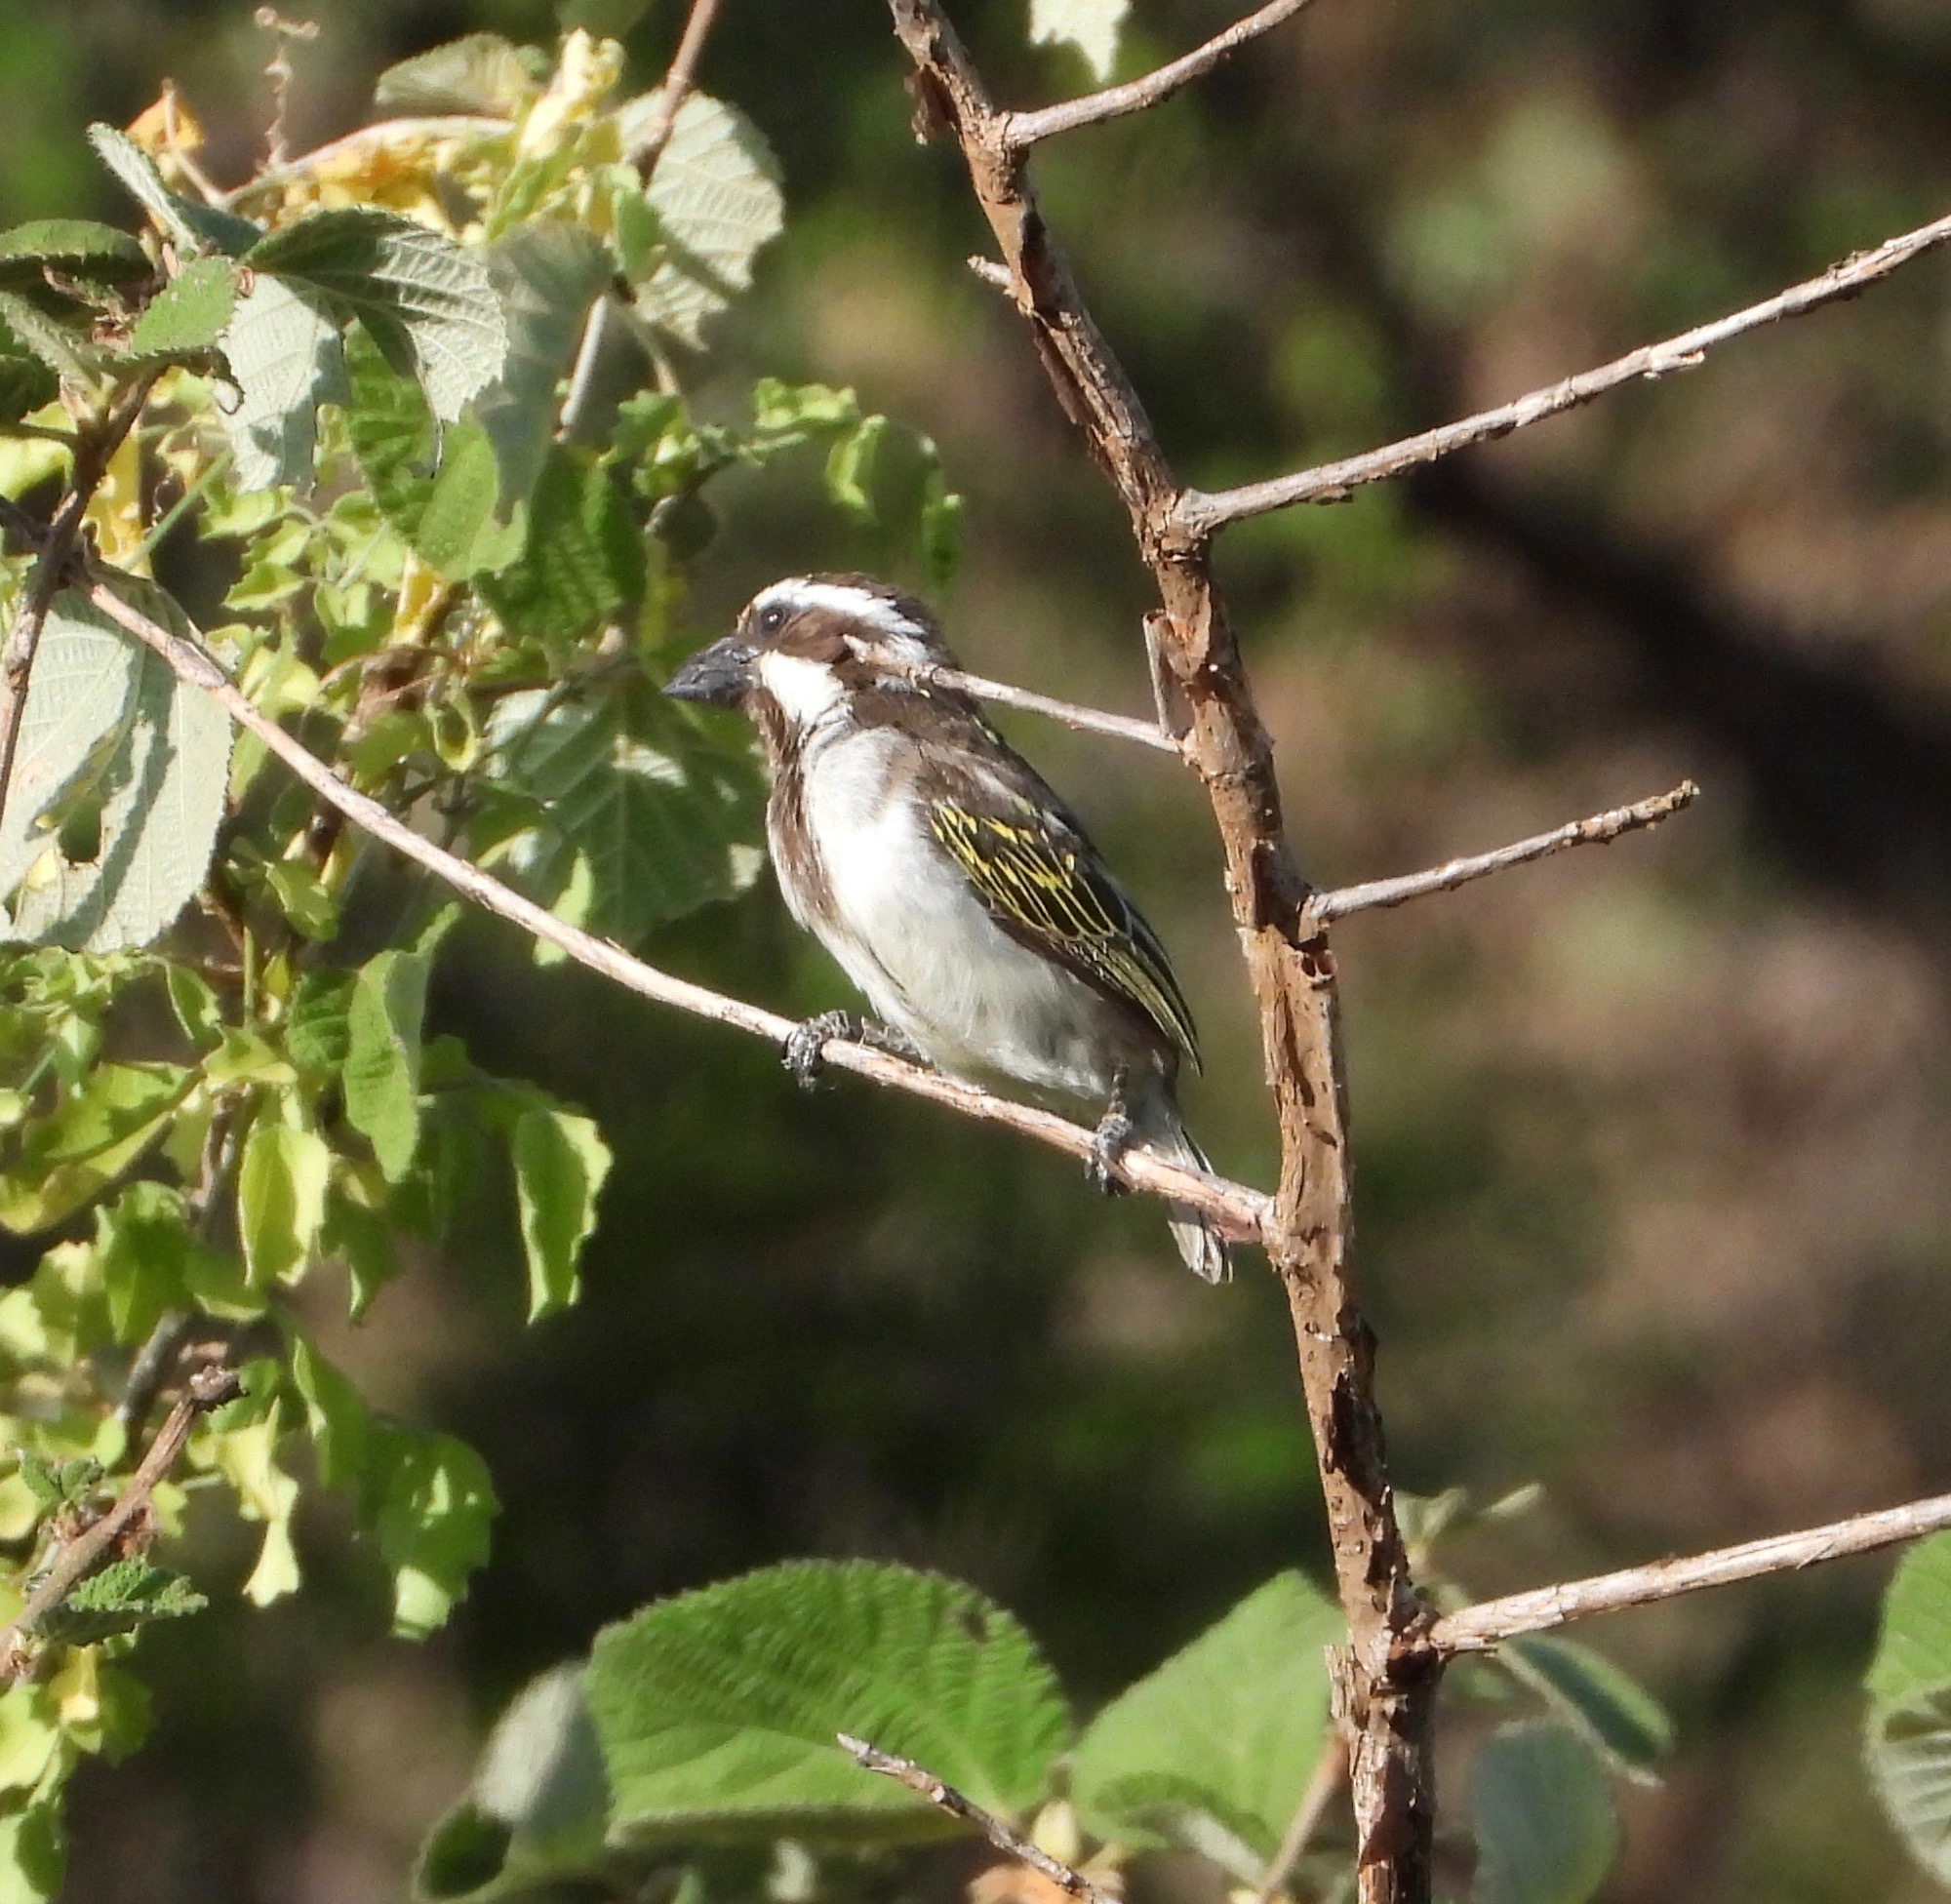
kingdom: Animalia
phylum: Chordata
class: Aves
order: Piciformes
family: Lybiidae
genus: Tricholaema
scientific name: Tricholaema melanocephala
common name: Black-throated barbet
